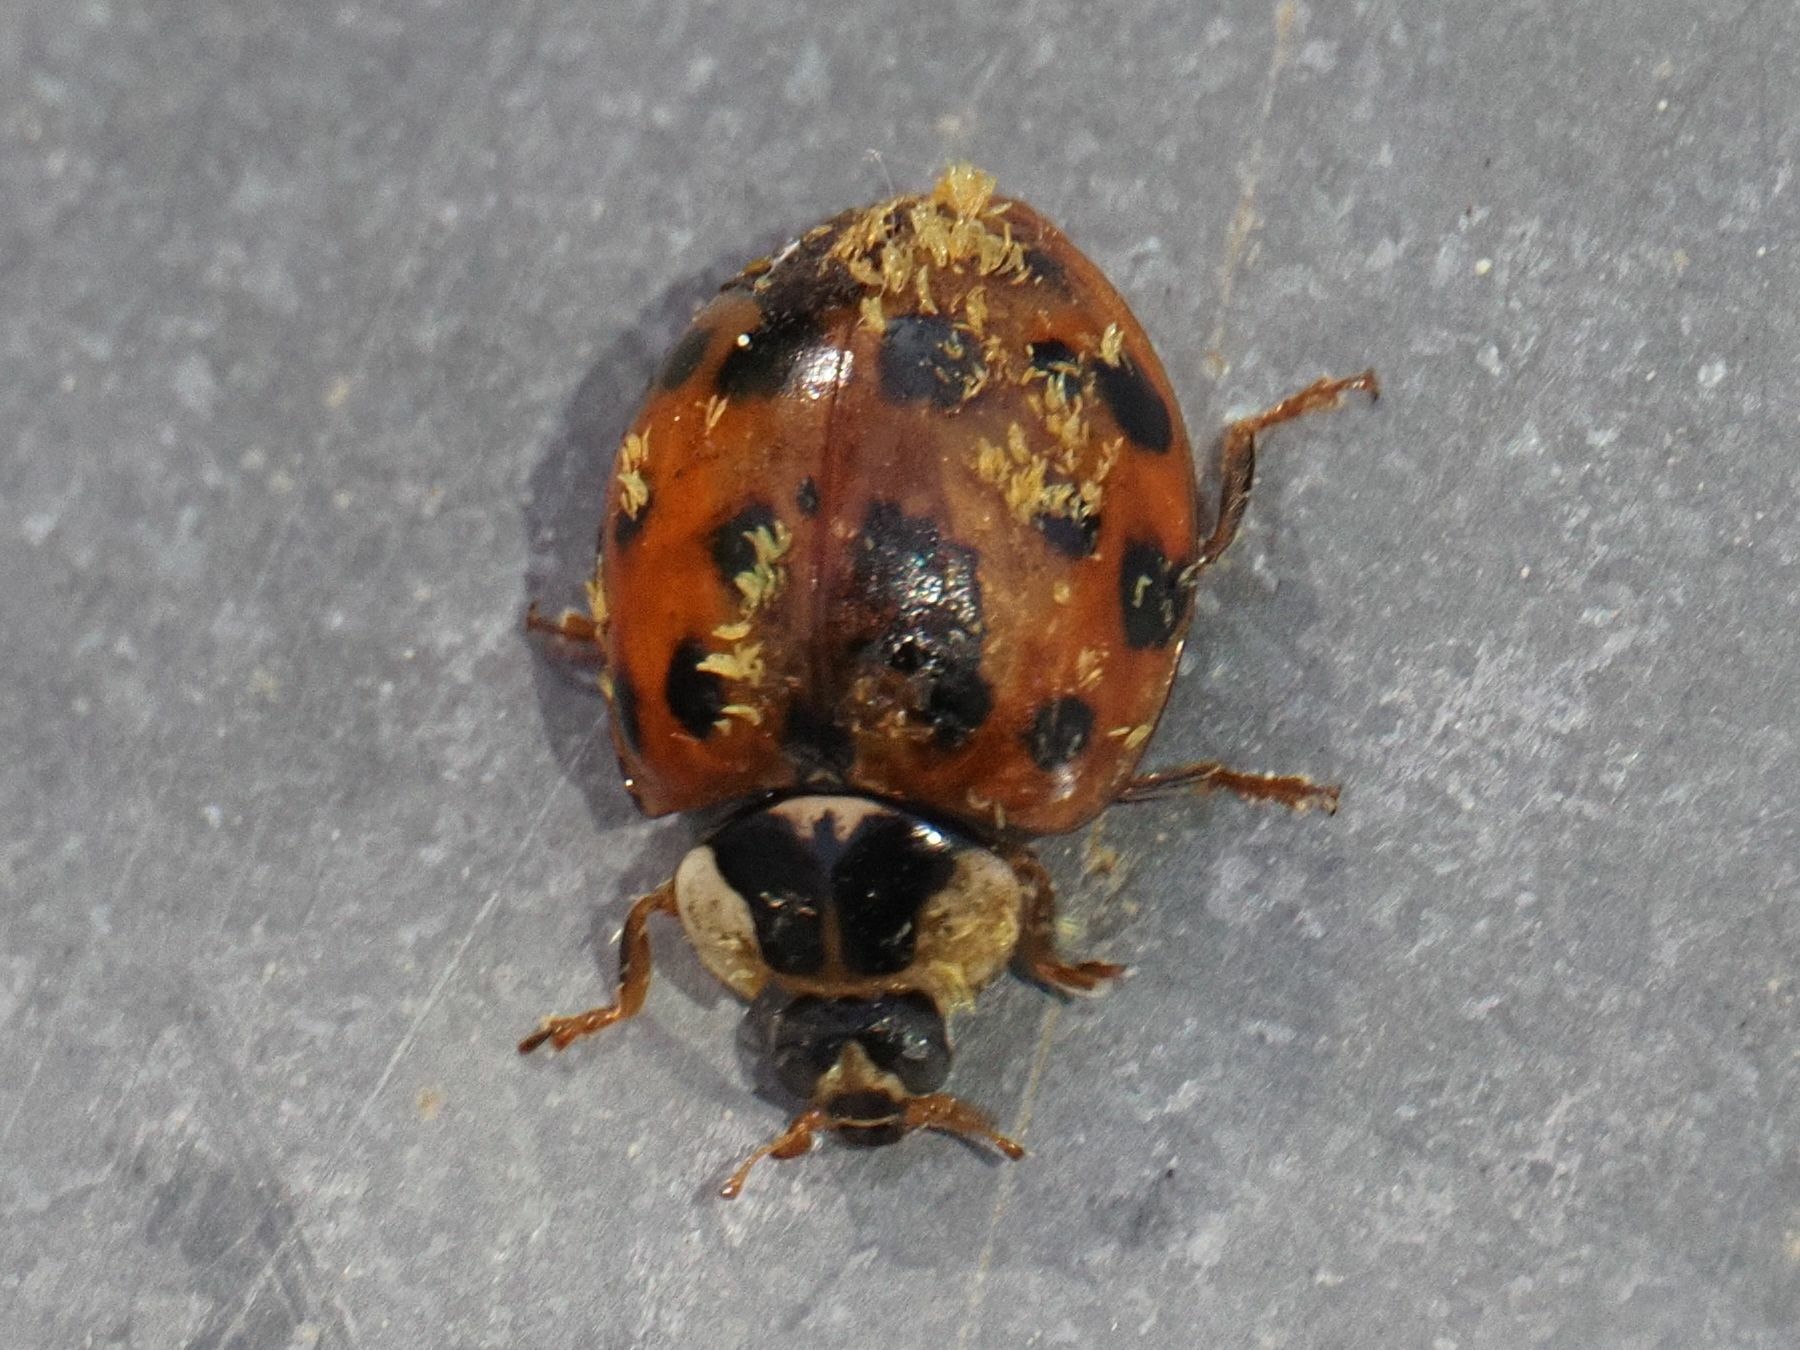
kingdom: Animalia
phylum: Arthropoda
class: Insecta
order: Coleoptera
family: Coccinellidae
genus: Harmonia
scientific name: Harmonia axyridis
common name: Harlequin ladybird
